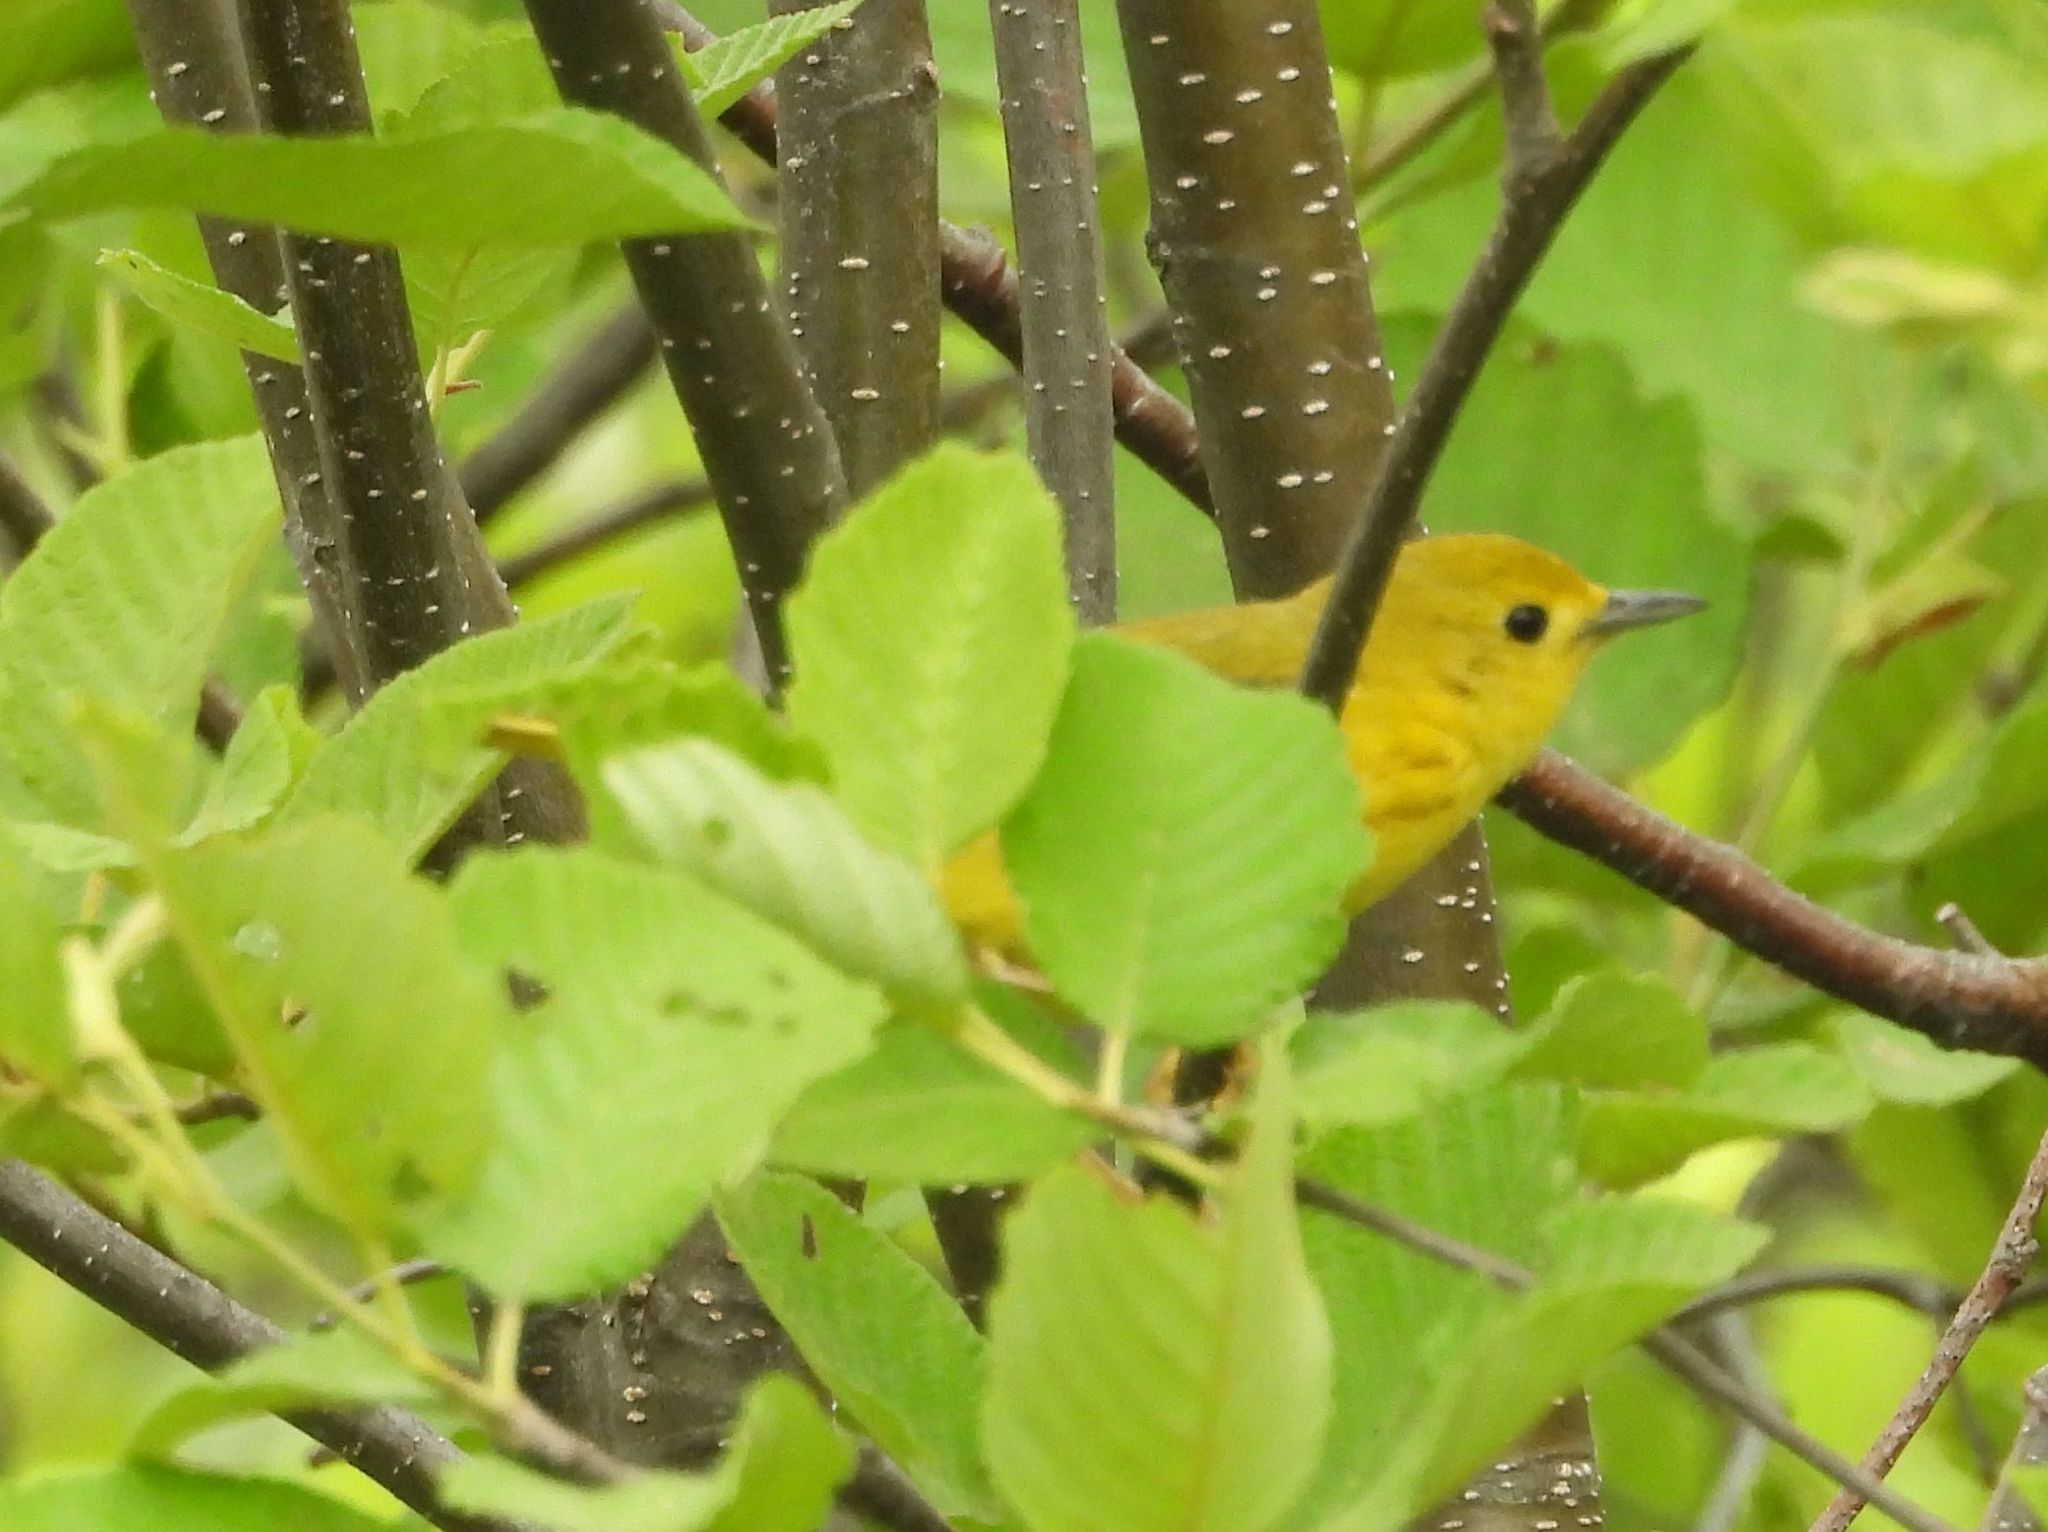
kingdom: Animalia
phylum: Chordata
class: Aves
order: Passeriformes
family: Parulidae
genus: Setophaga
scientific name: Setophaga petechia
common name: Yellow warbler
